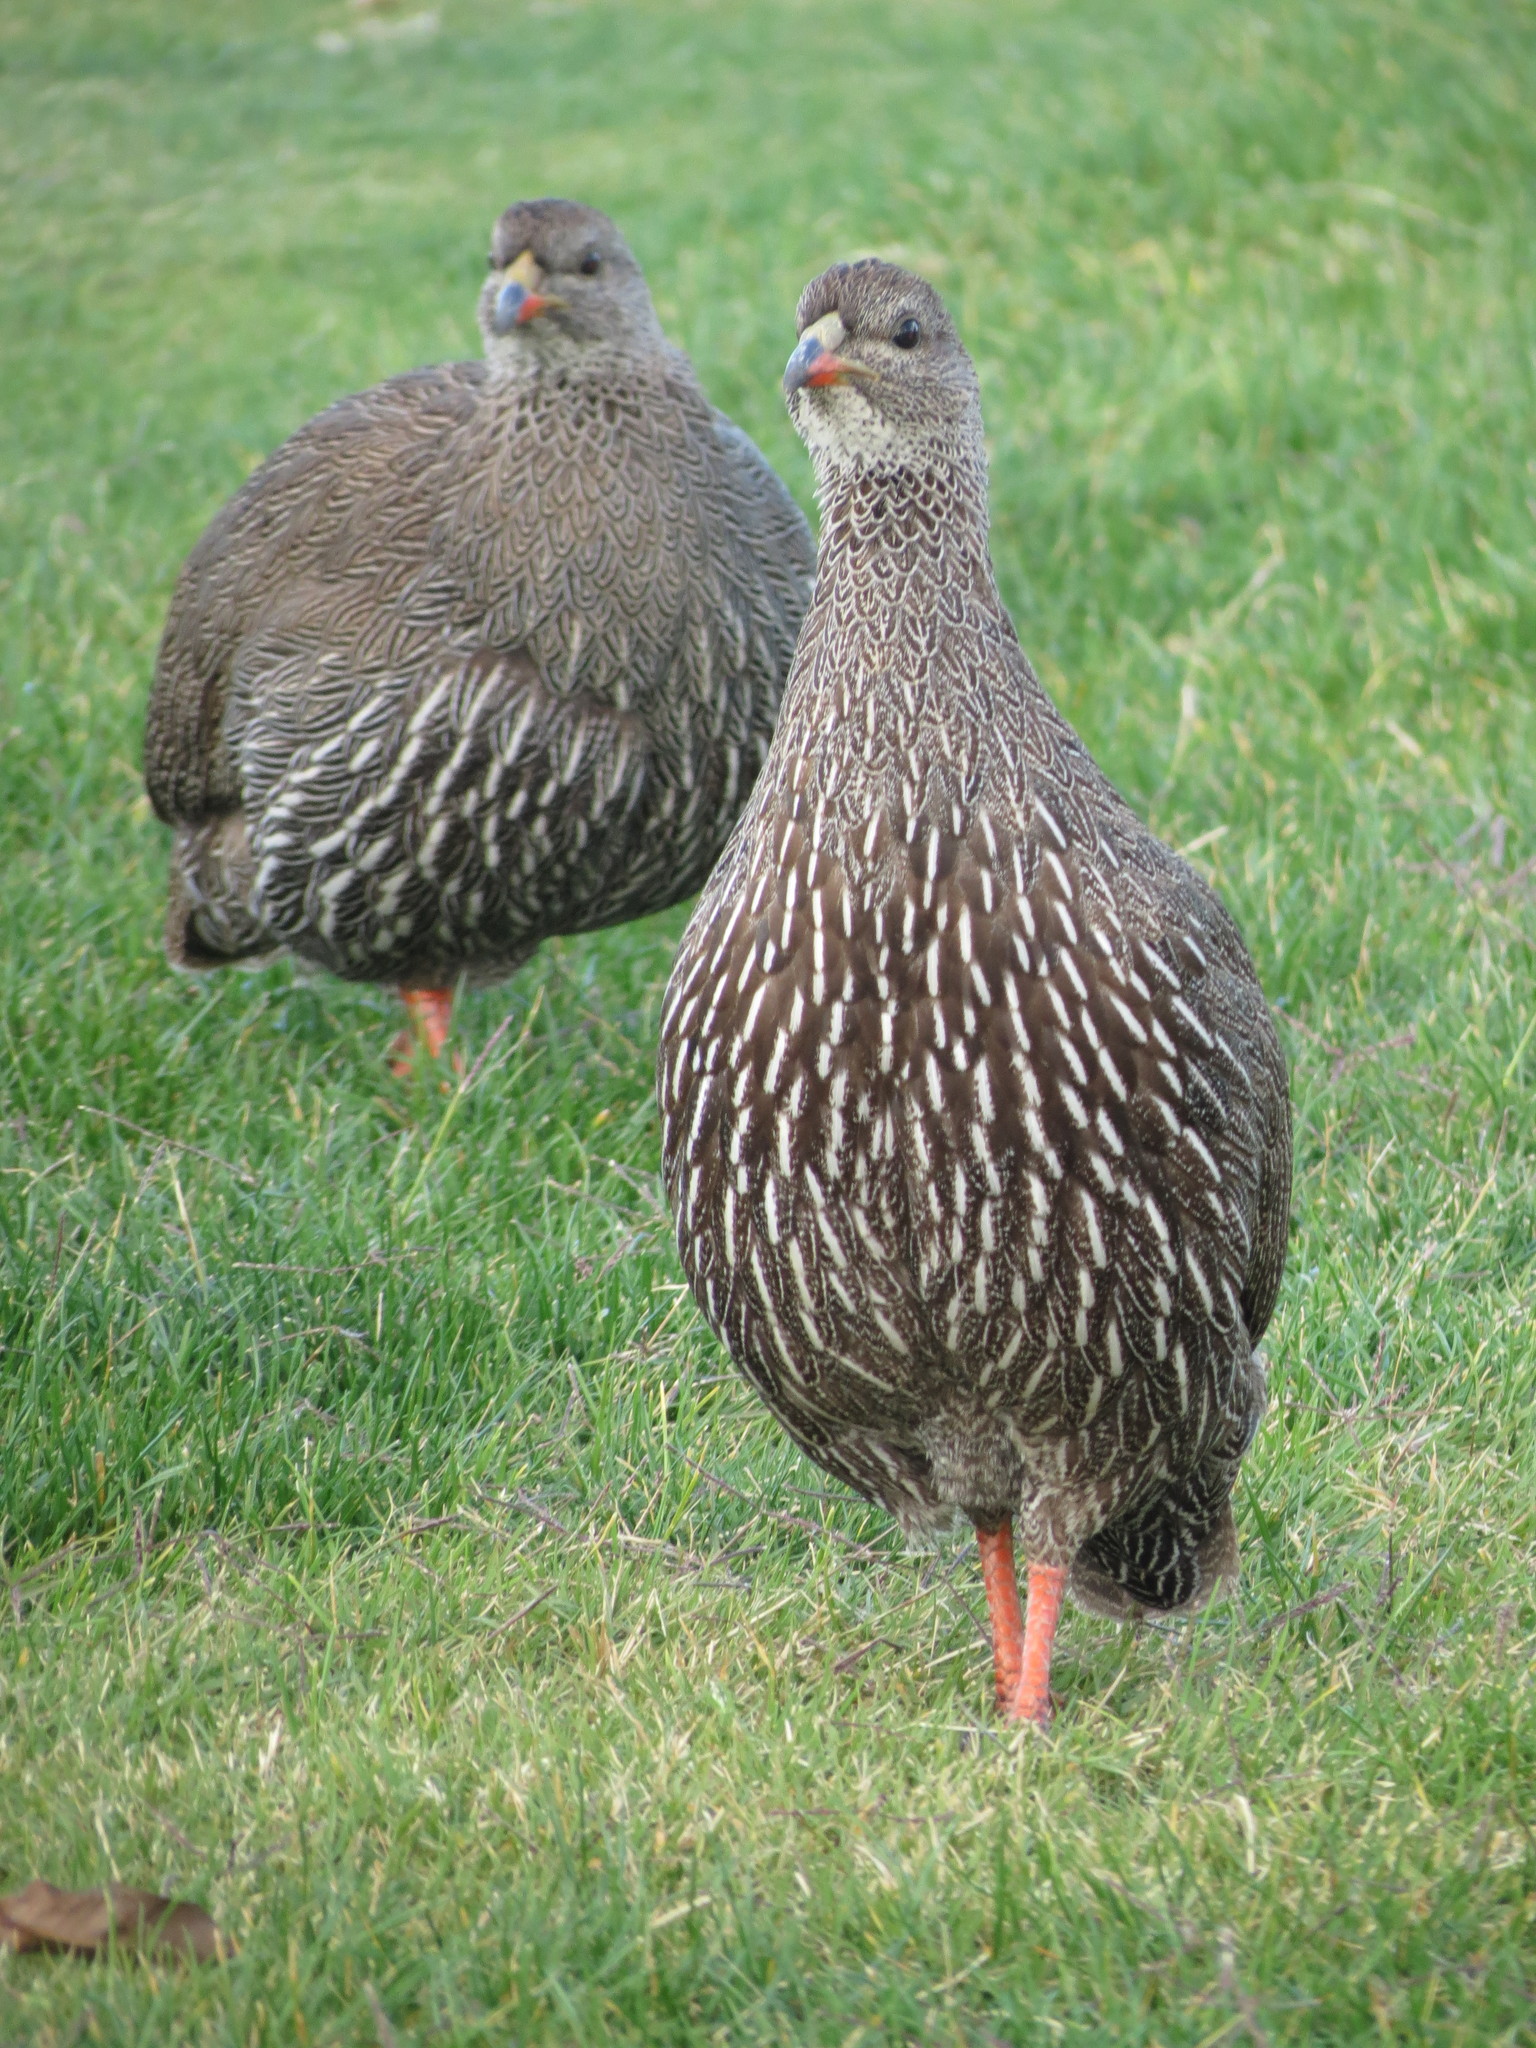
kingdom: Animalia
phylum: Chordata
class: Aves
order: Galliformes
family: Phasianidae
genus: Pternistis
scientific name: Pternistis capensis
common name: Cape spurfowl
